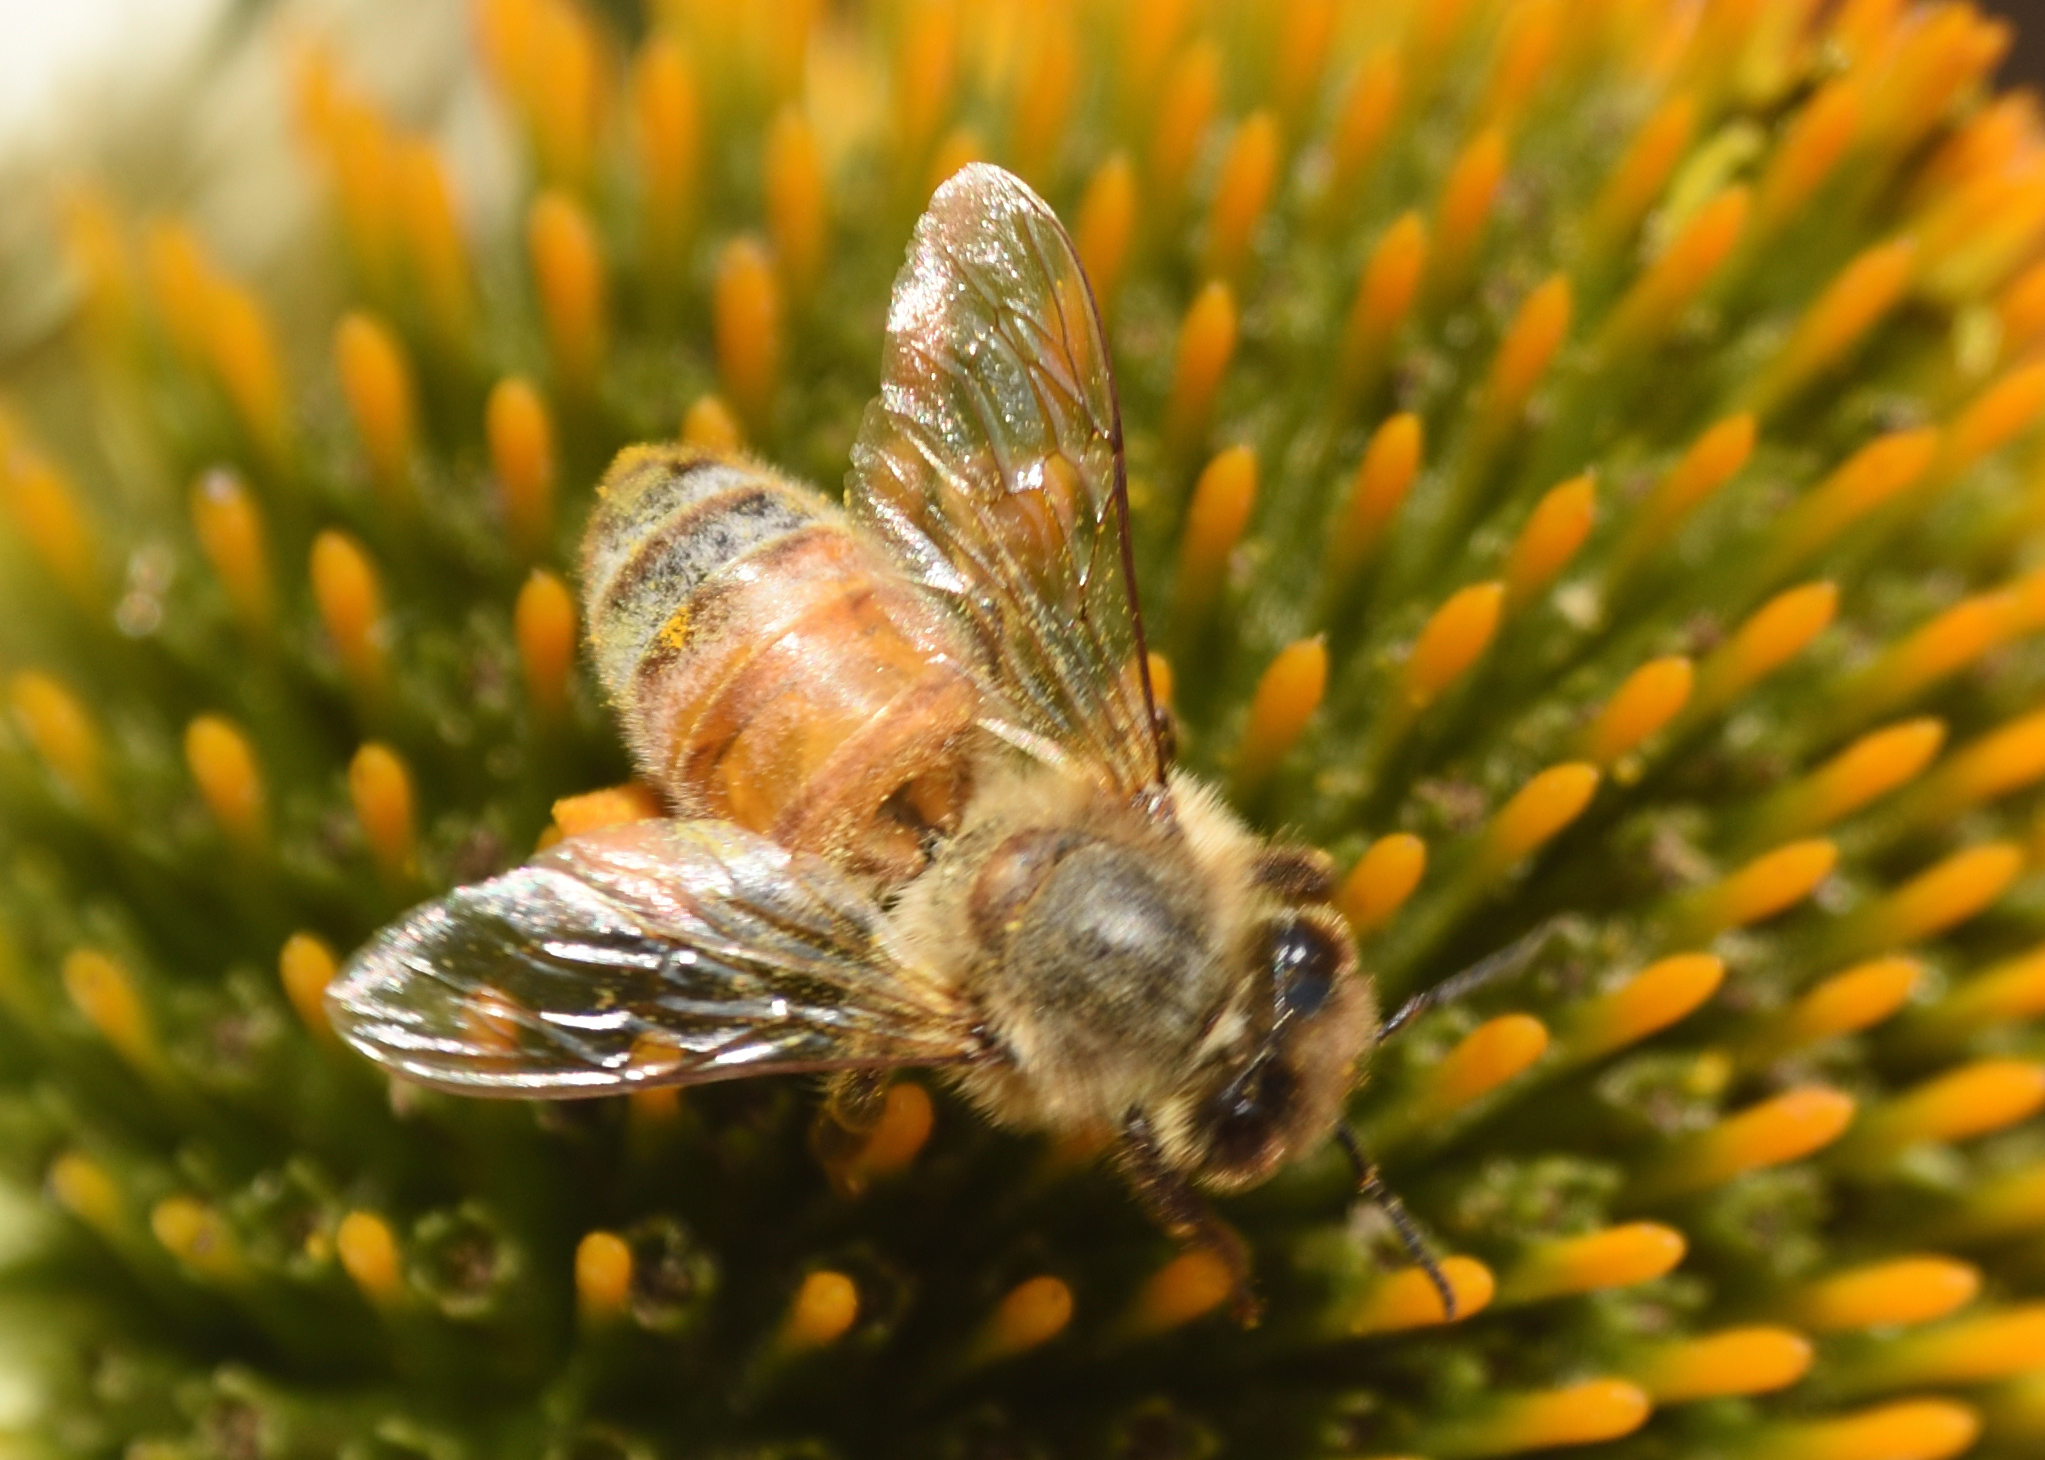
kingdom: Animalia
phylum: Arthropoda
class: Insecta
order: Hymenoptera
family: Apidae
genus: Apis
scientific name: Apis mellifera
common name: Honey bee
